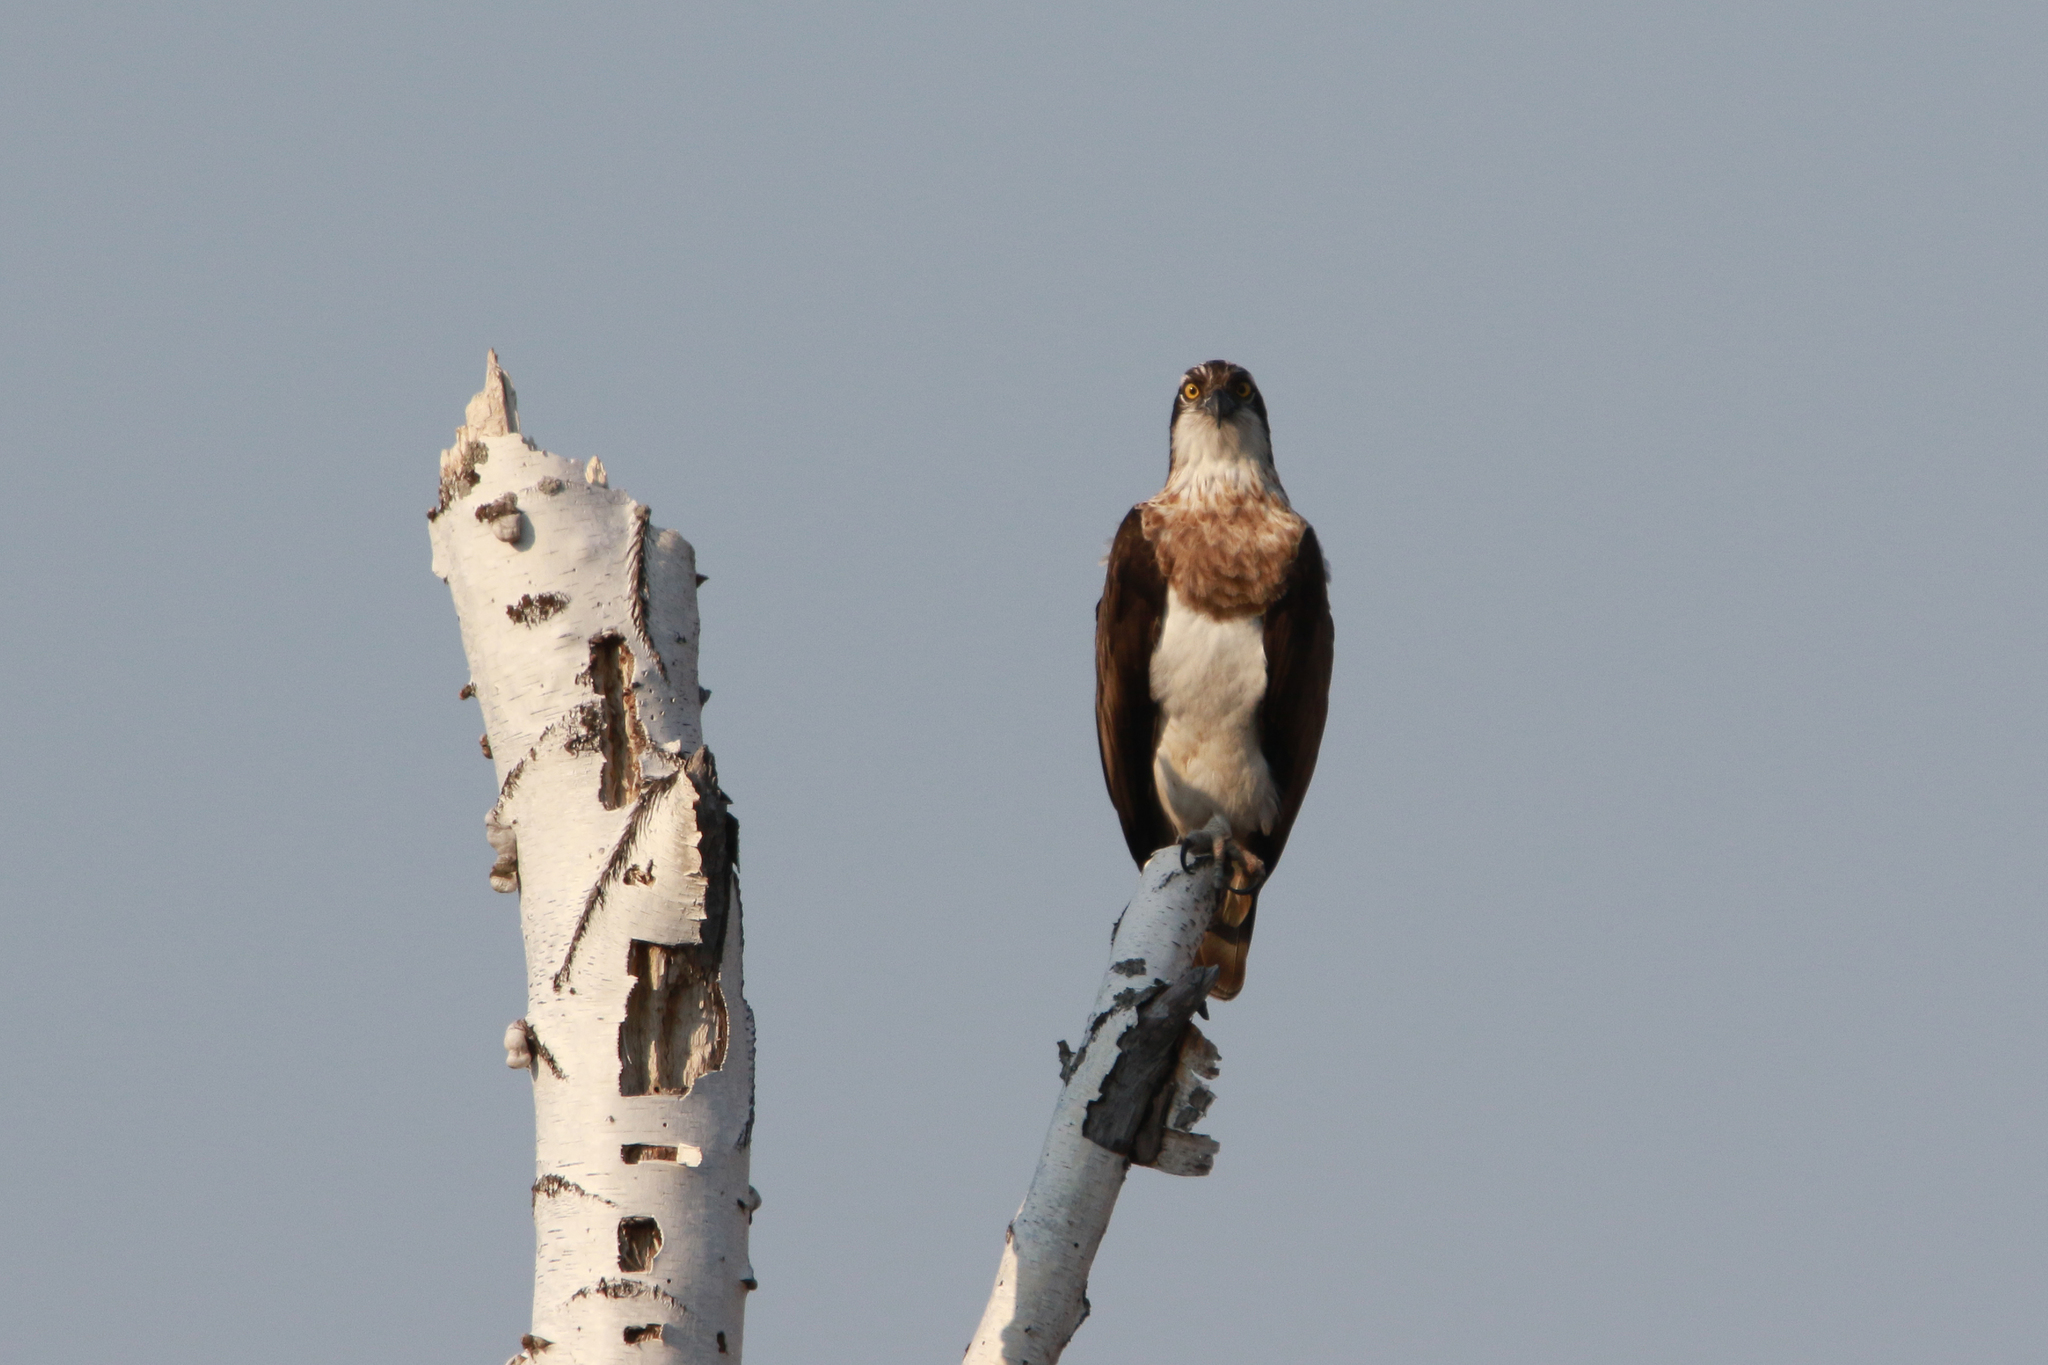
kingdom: Animalia
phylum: Chordata
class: Aves
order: Accipitriformes
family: Pandionidae
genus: Pandion
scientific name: Pandion haliaetus
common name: Osprey
